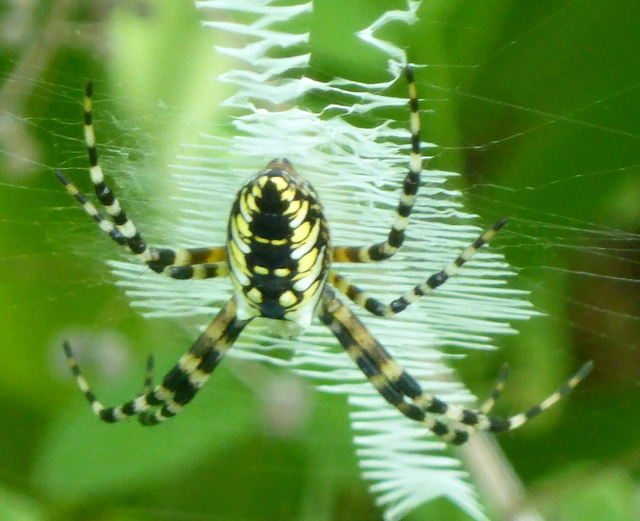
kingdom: Animalia
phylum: Arthropoda
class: Arachnida
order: Araneae
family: Araneidae
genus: Argiope
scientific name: Argiope aurantia
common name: Orb weavers
